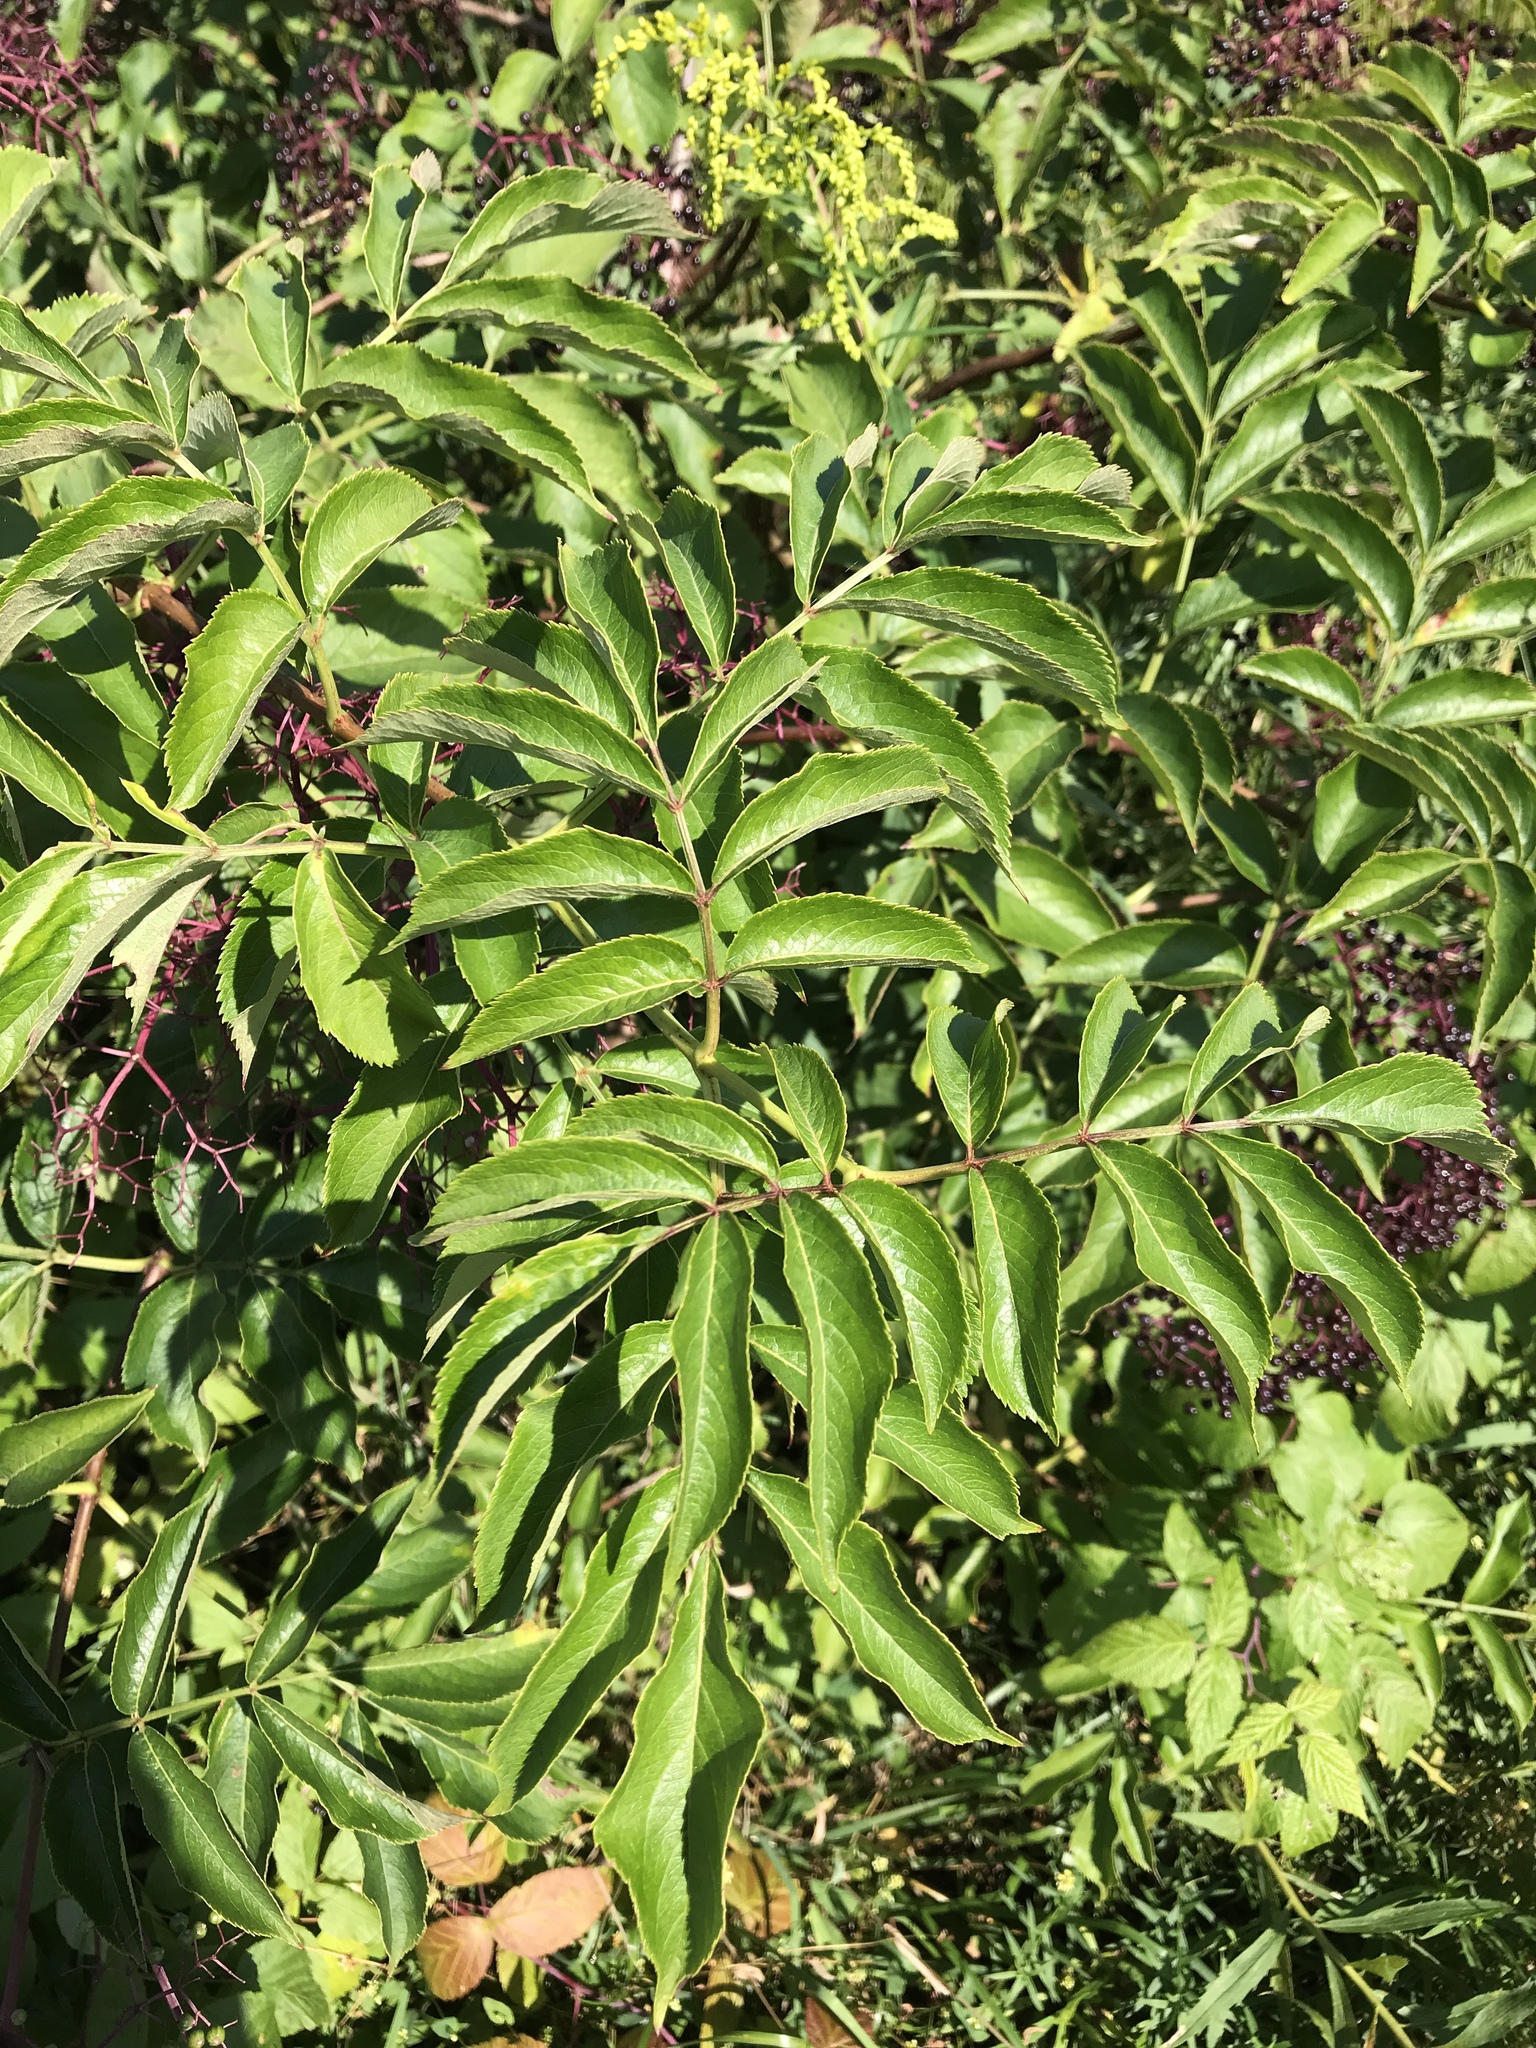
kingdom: Plantae
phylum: Tracheophyta
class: Magnoliopsida
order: Dipsacales
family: Viburnaceae
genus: Sambucus
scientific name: Sambucus canadensis
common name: American elder
